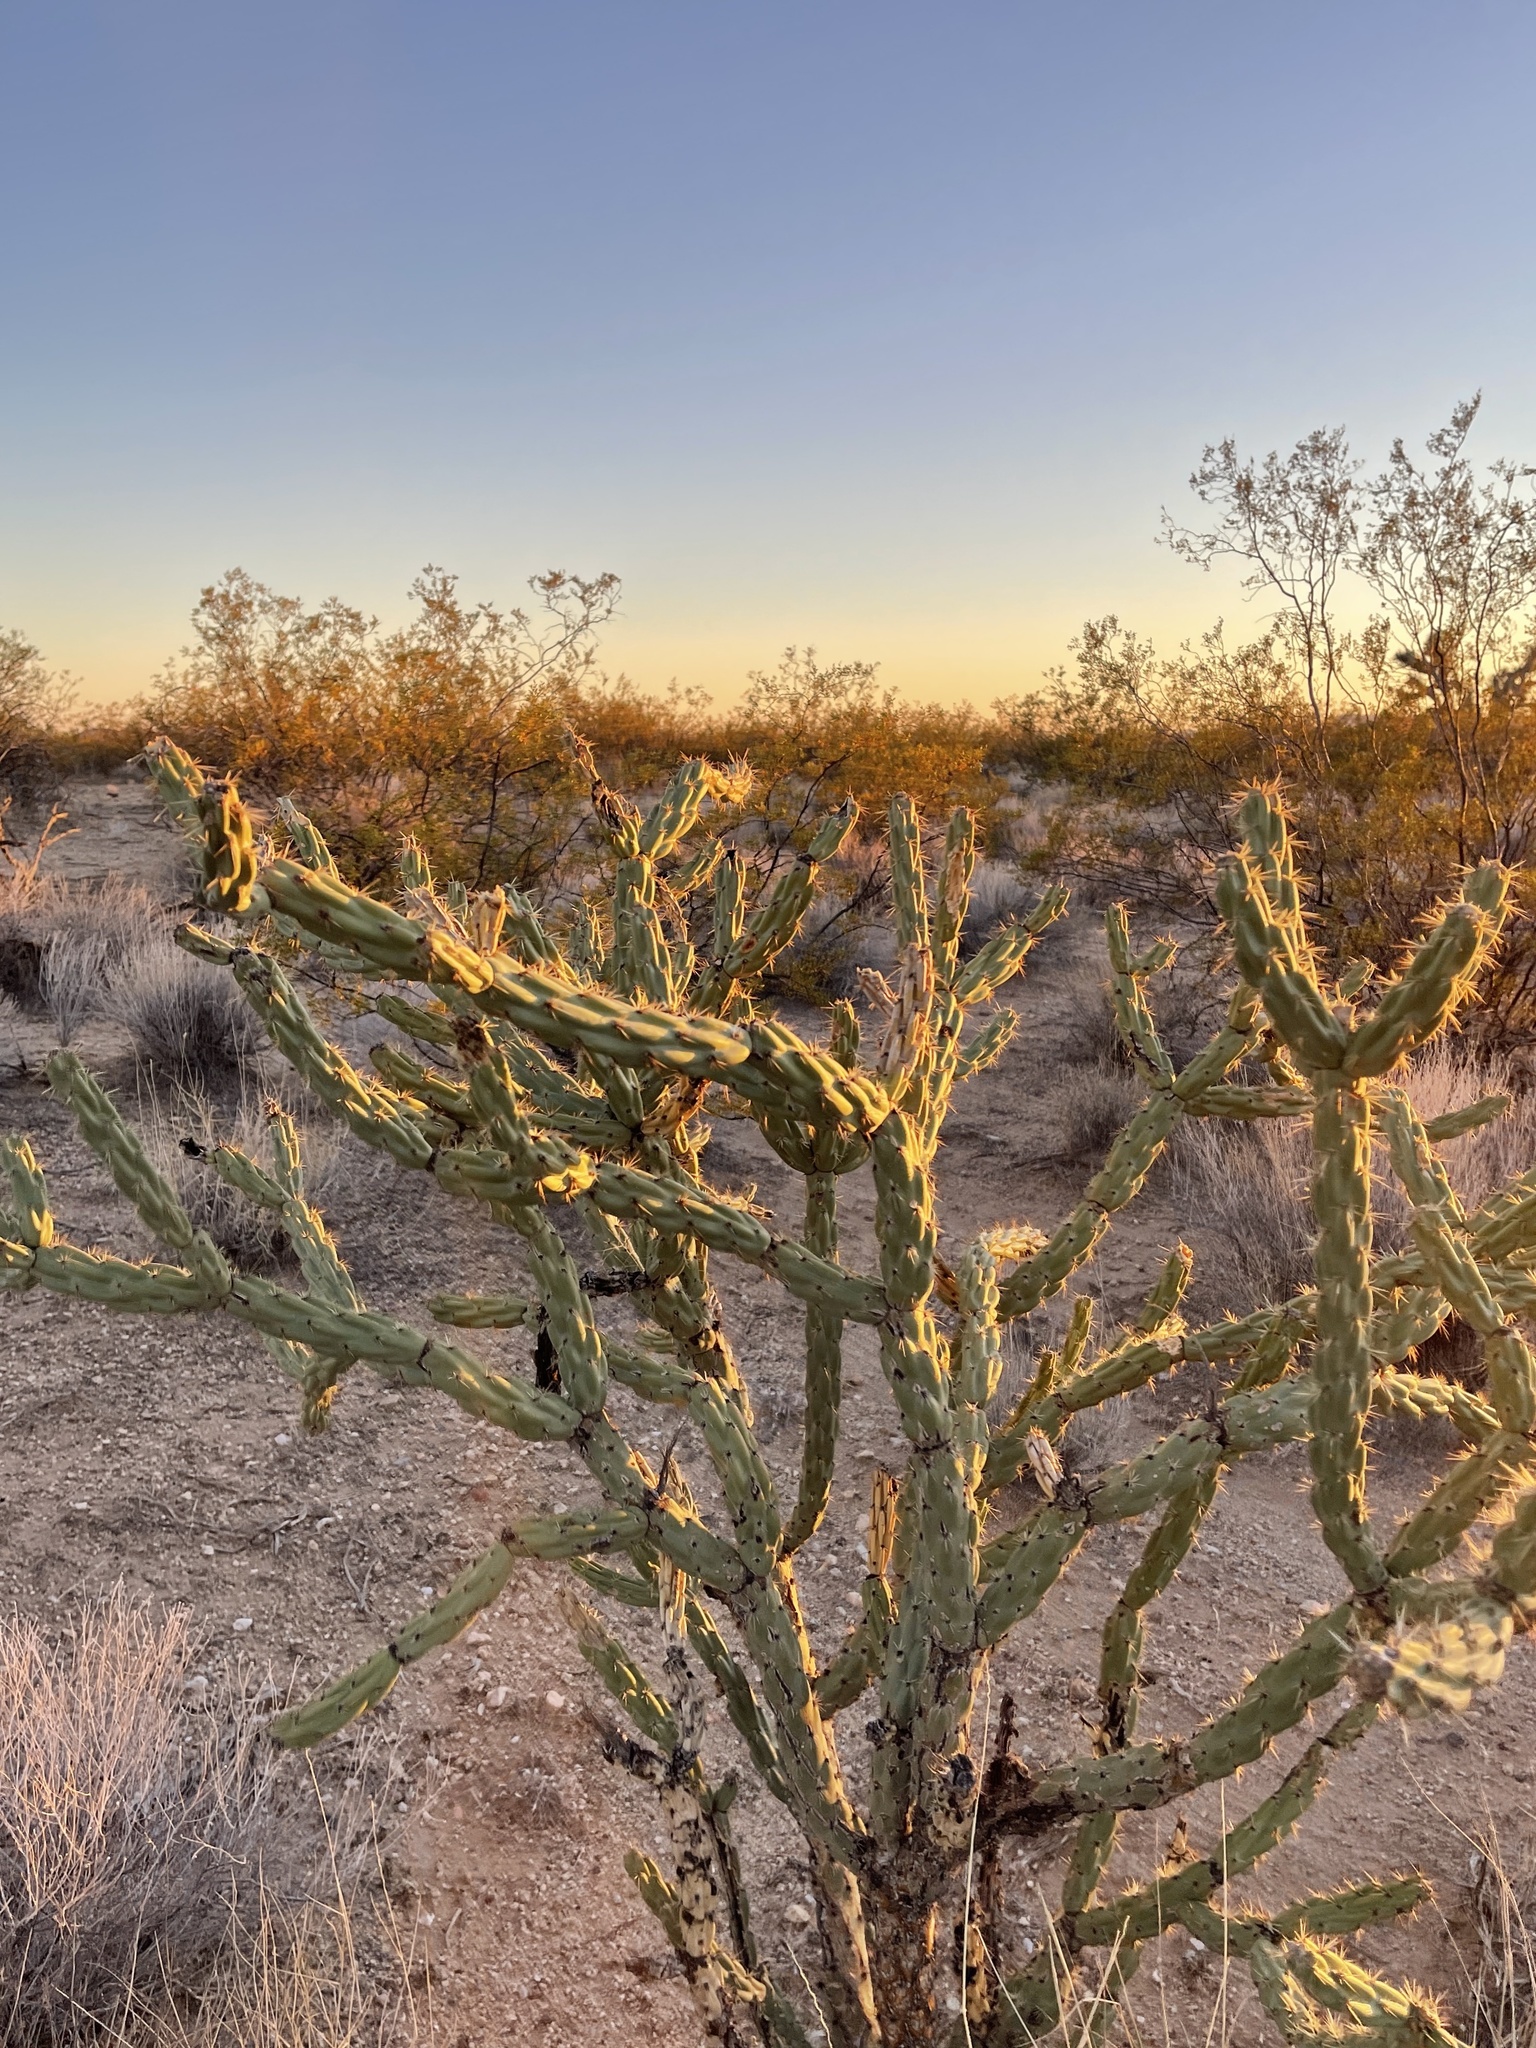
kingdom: Plantae
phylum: Tracheophyta
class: Magnoliopsida
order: Caryophyllales
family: Cactaceae
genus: Cylindropuntia
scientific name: Cylindropuntia acanthocarpa
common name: Buckhorn cholla
